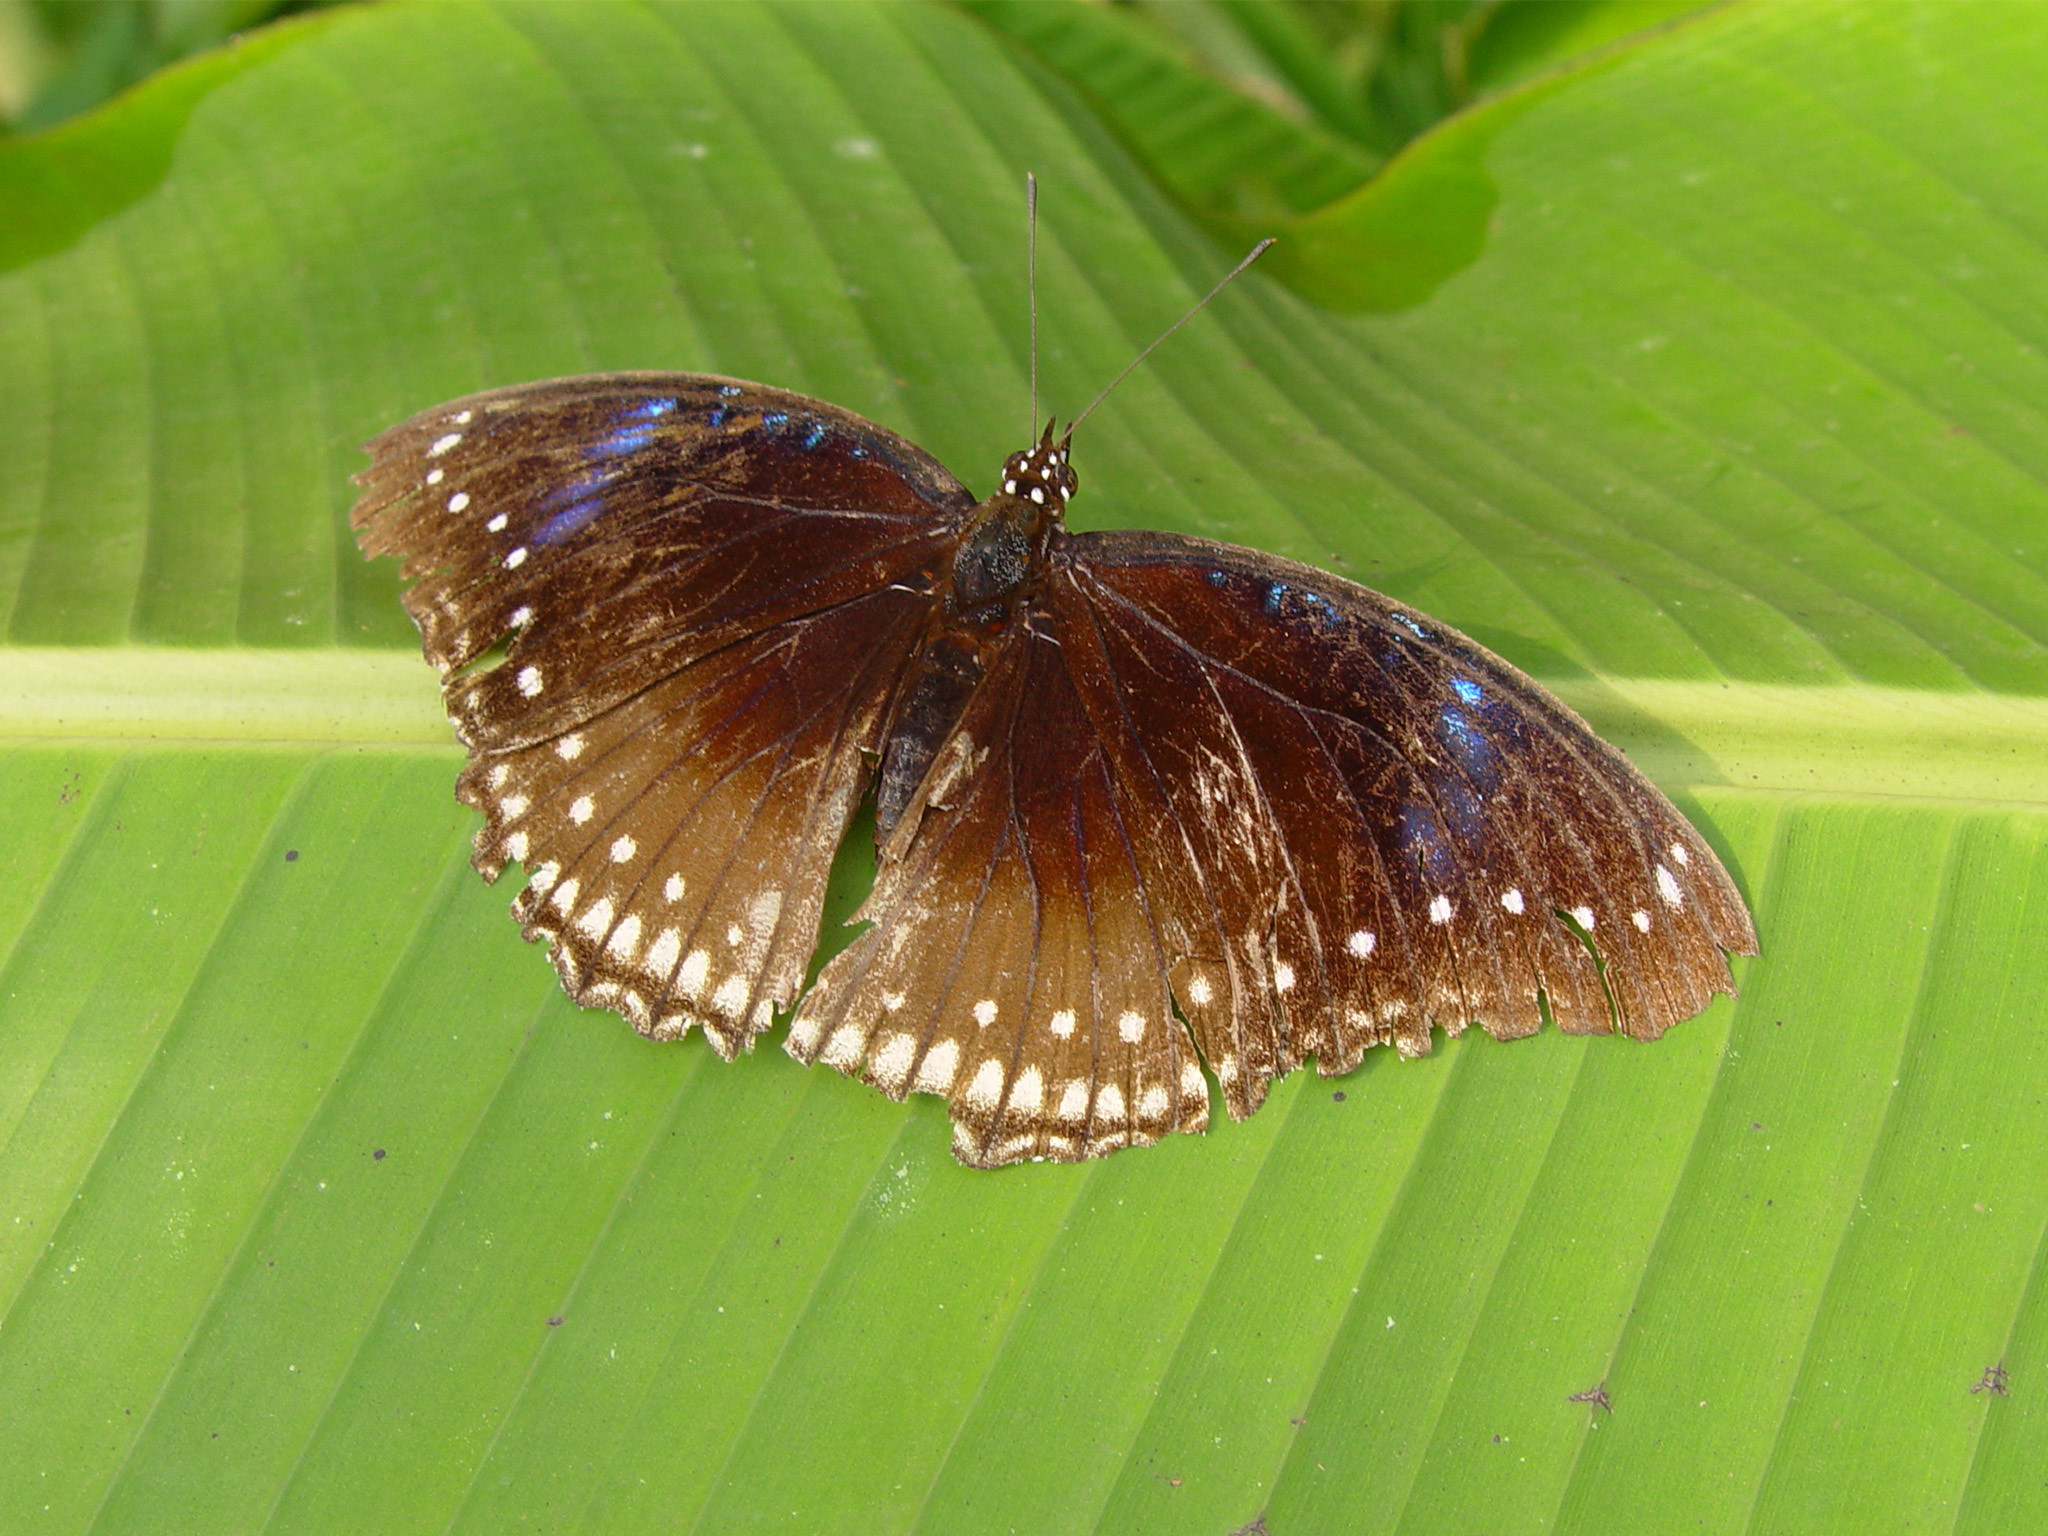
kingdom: Animalia
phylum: Arthropoda
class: Insecta
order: Lepidoptera
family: Nymphalidae
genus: Hypolimnas
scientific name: Hypolimnas bolina
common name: Great eggfly
